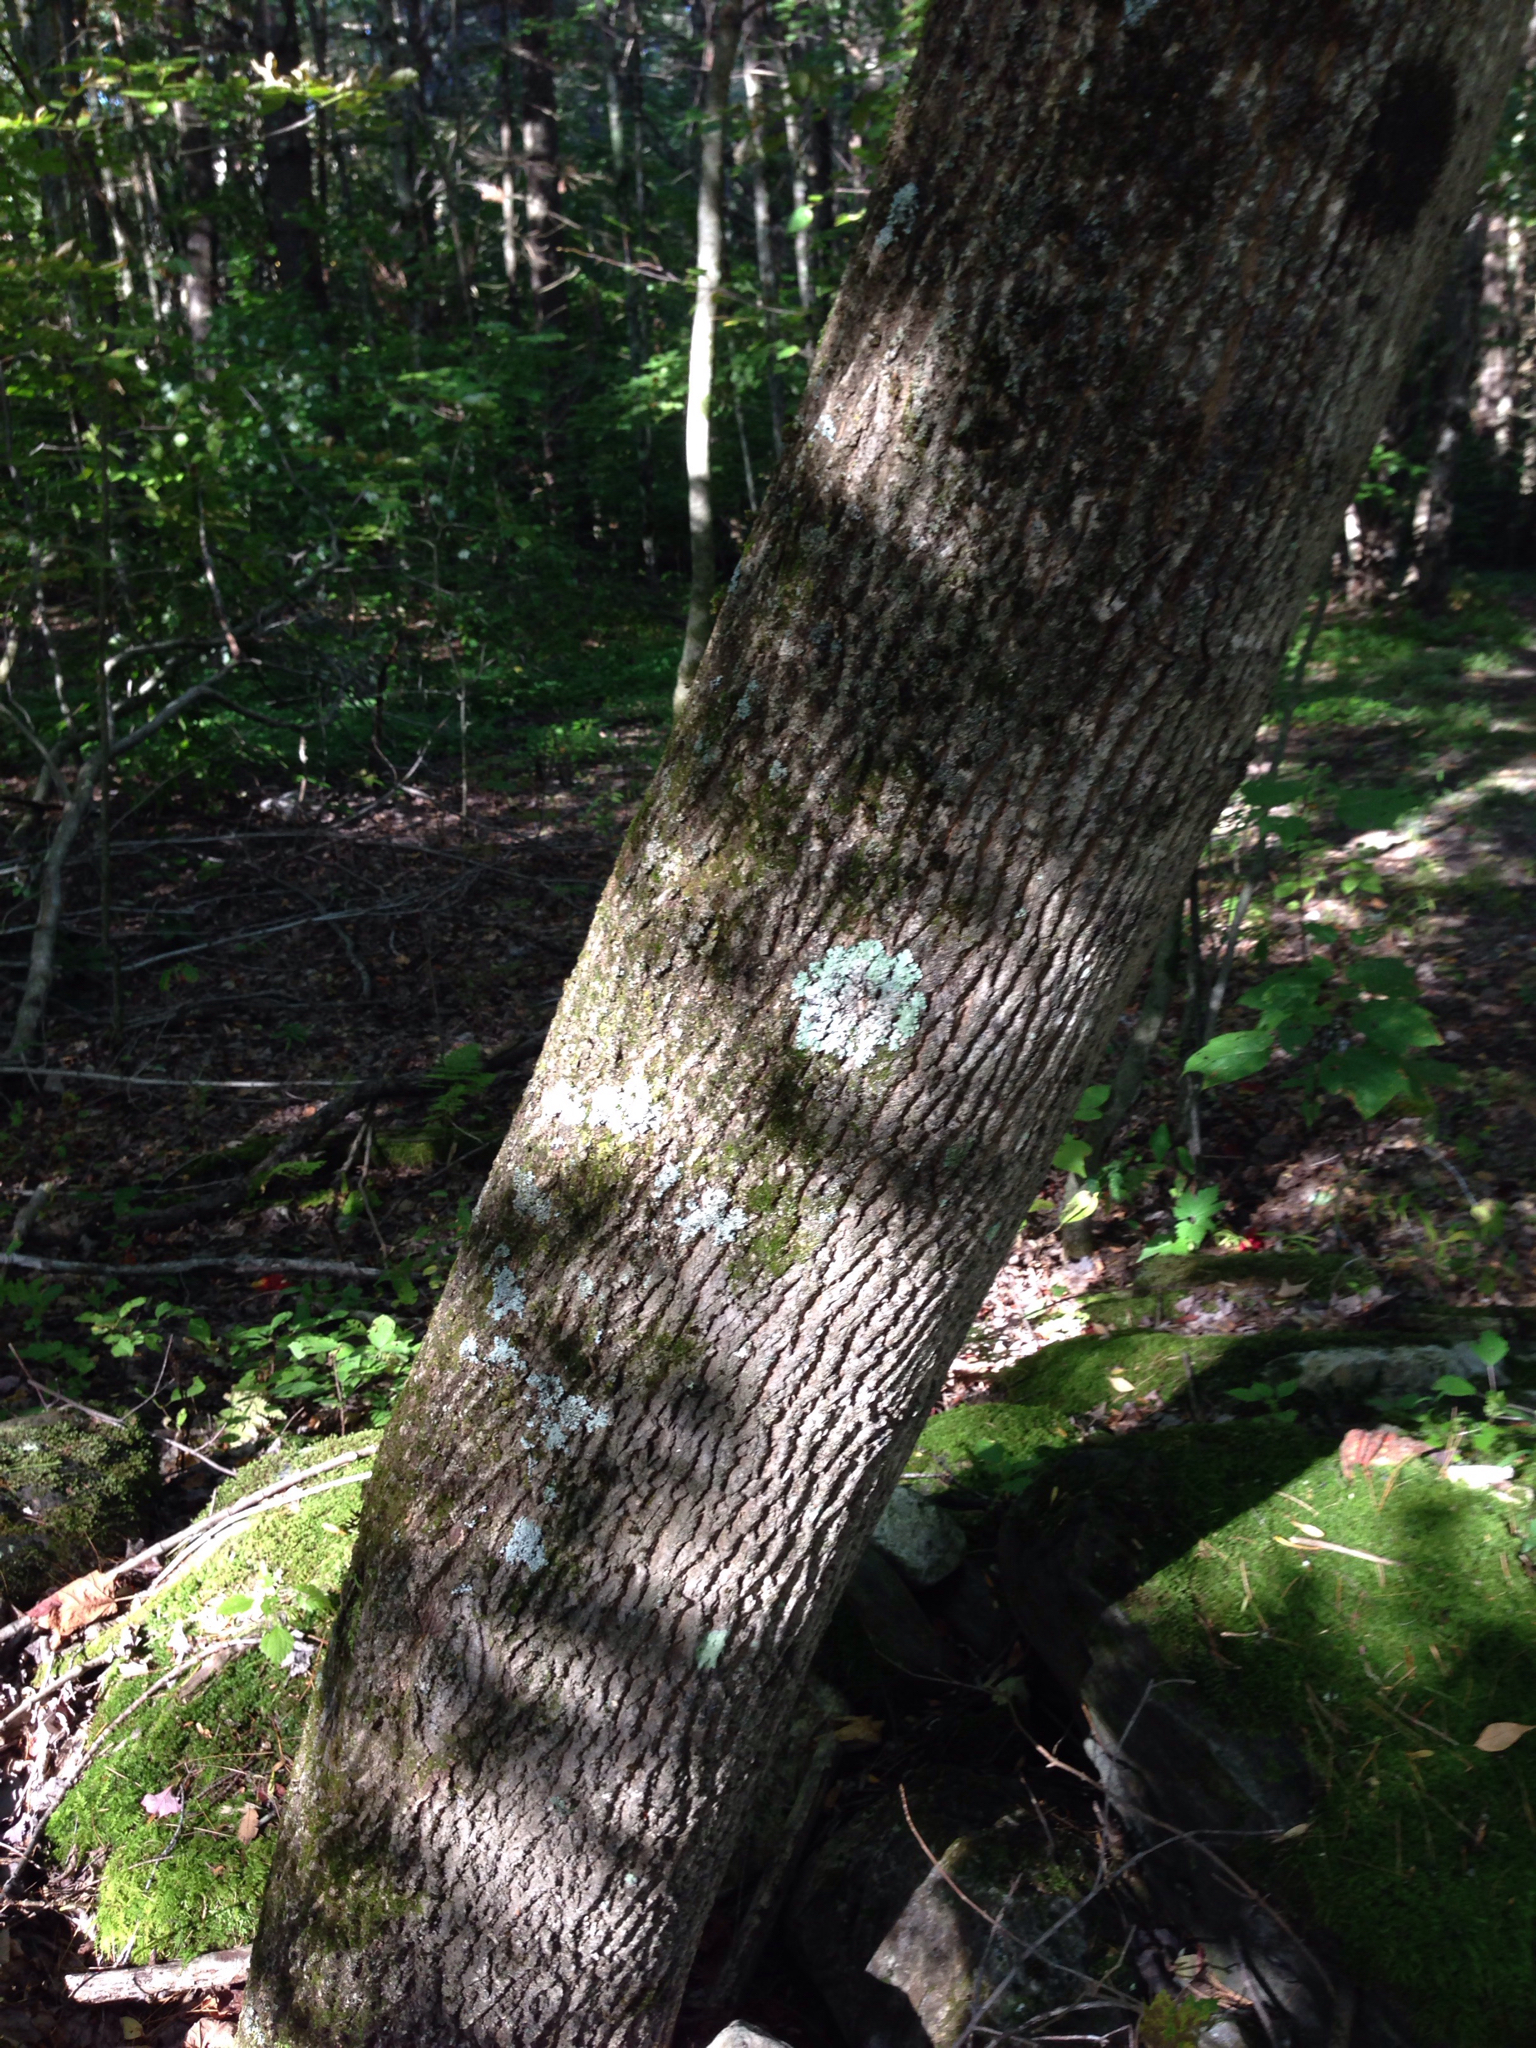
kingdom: Plantae
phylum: Tracheophyta
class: Magnoliopsida
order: Lamiales
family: Oleaceae
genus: Fraxinus
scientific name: Fraxinus americana
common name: White ash
